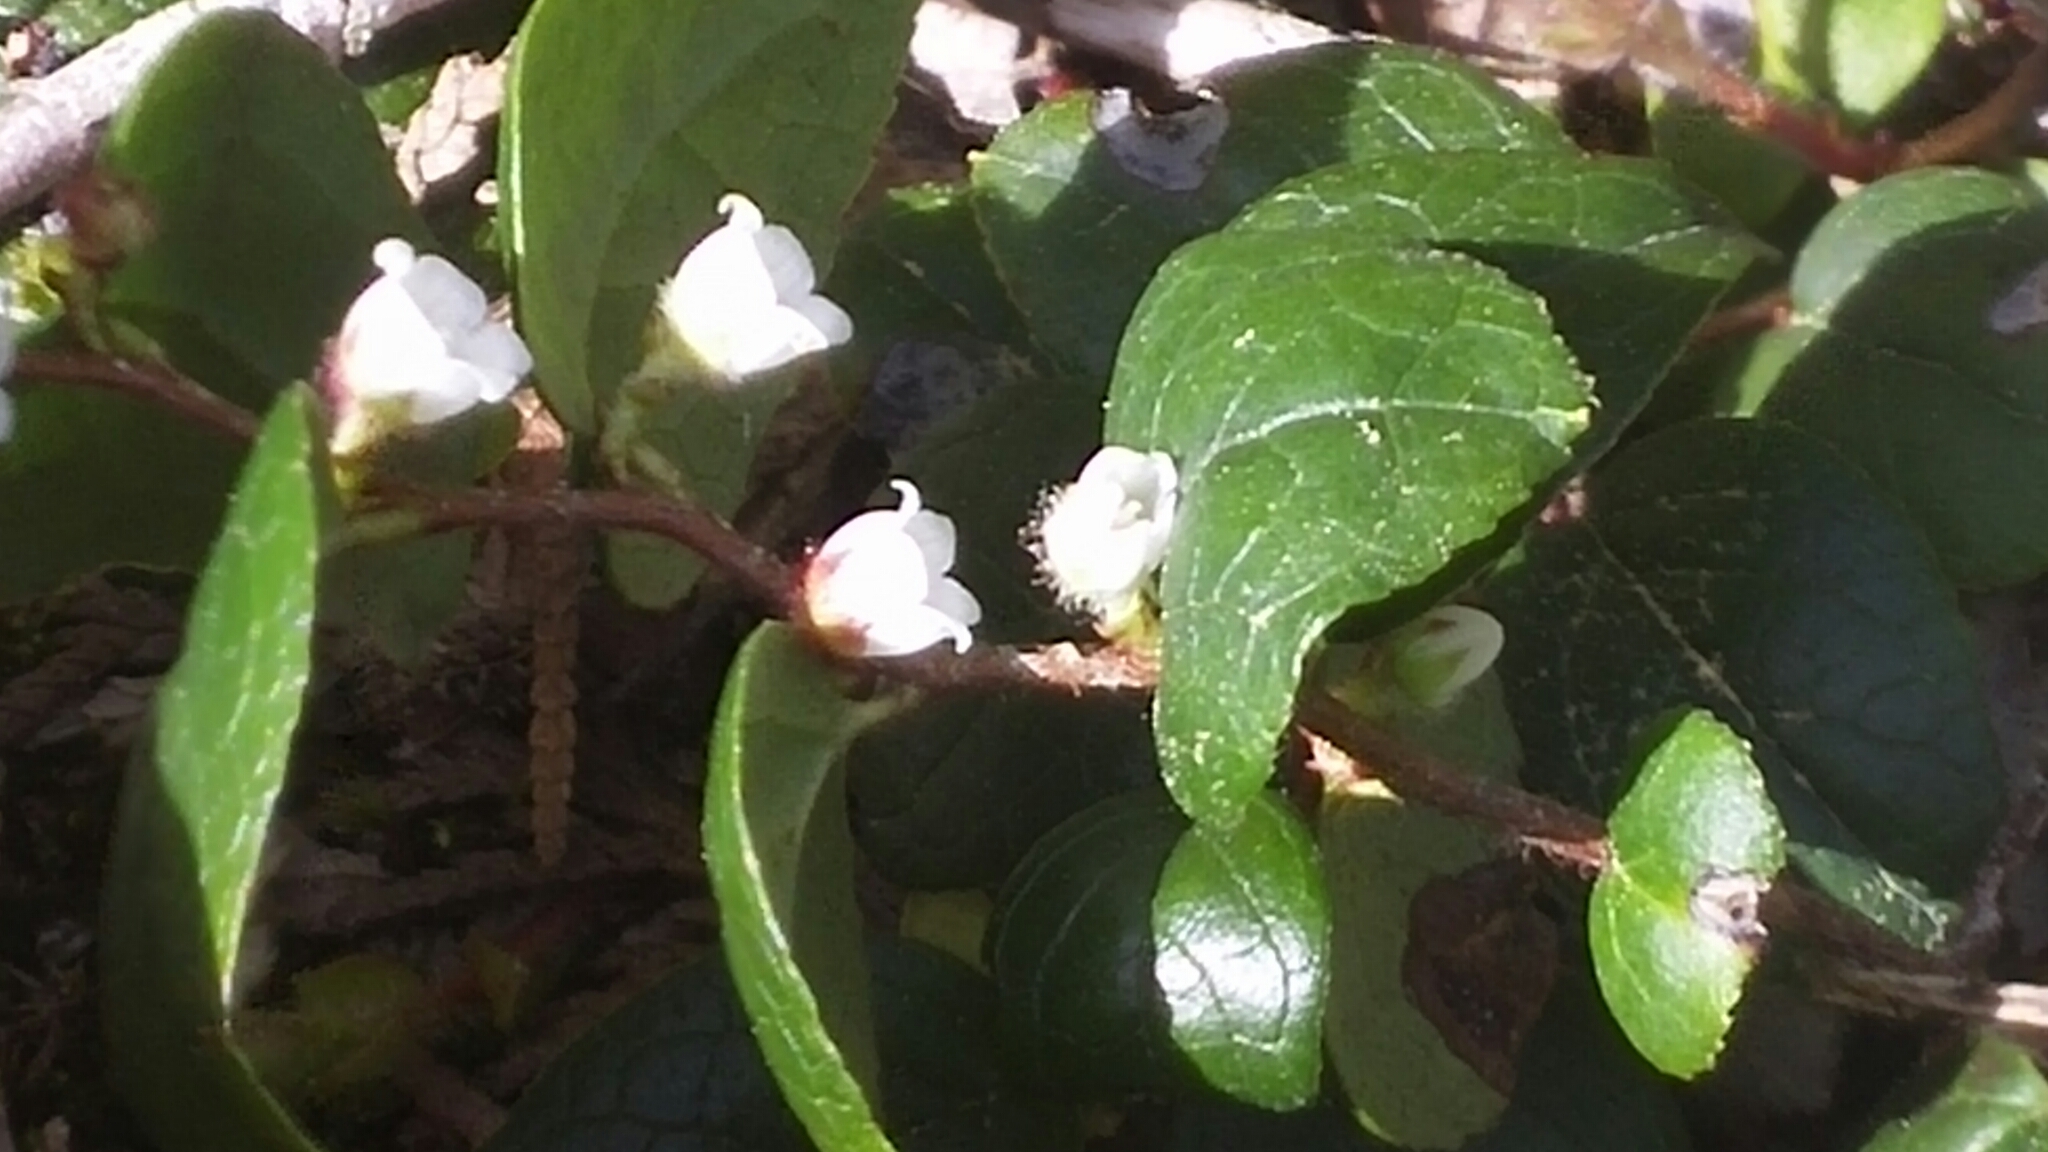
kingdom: Plantae
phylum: Tracheophyta
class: Magnoliopsida
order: Ericales
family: Ericaceae
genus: Gaultheria
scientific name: Gaultheria ovatifolia
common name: Oregon wintergreen
